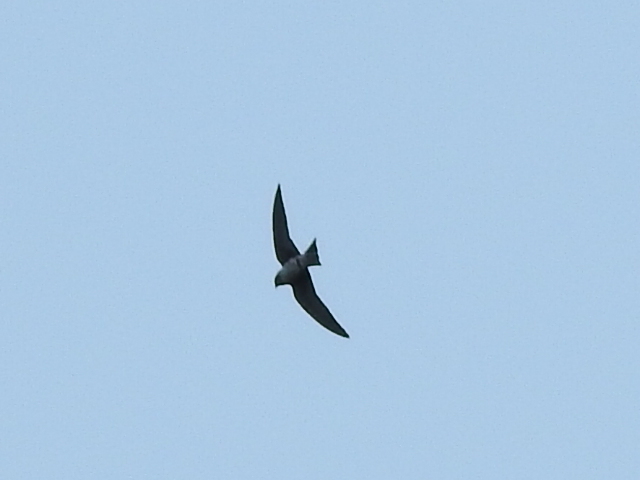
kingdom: Animalia
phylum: Chordata
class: Aves
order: Passeriformes
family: Hirundinidae
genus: Progne
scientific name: Progne subis
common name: Purple martin
